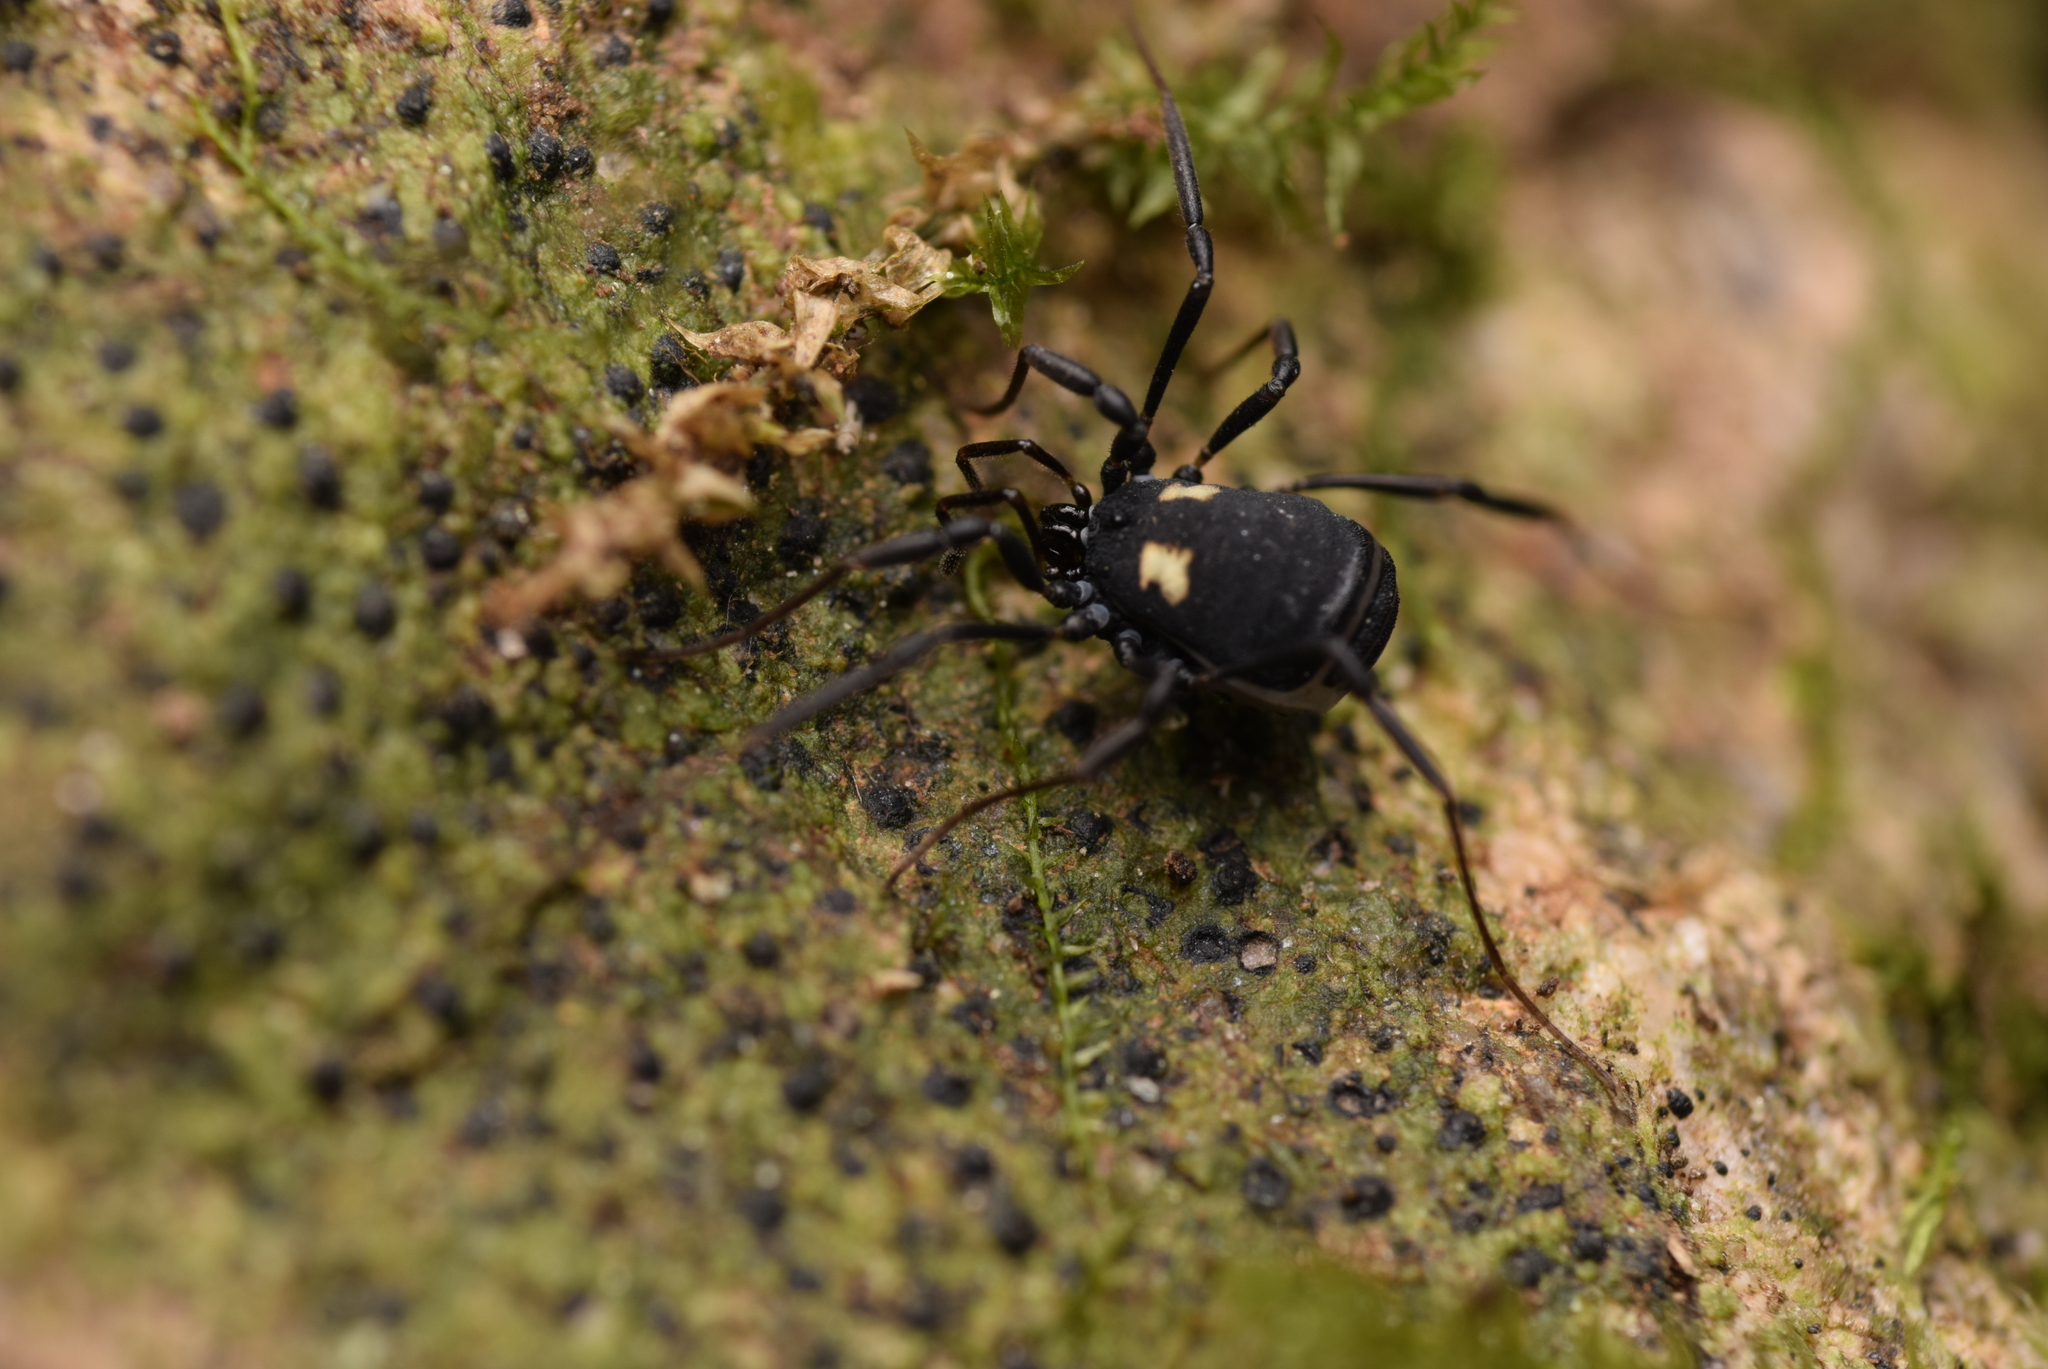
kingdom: Animalia
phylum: Arthropoda
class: Arachnida
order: Opiliones
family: Nemastomatidae
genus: Nemastoma
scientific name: Nemastoma bimaculatum
